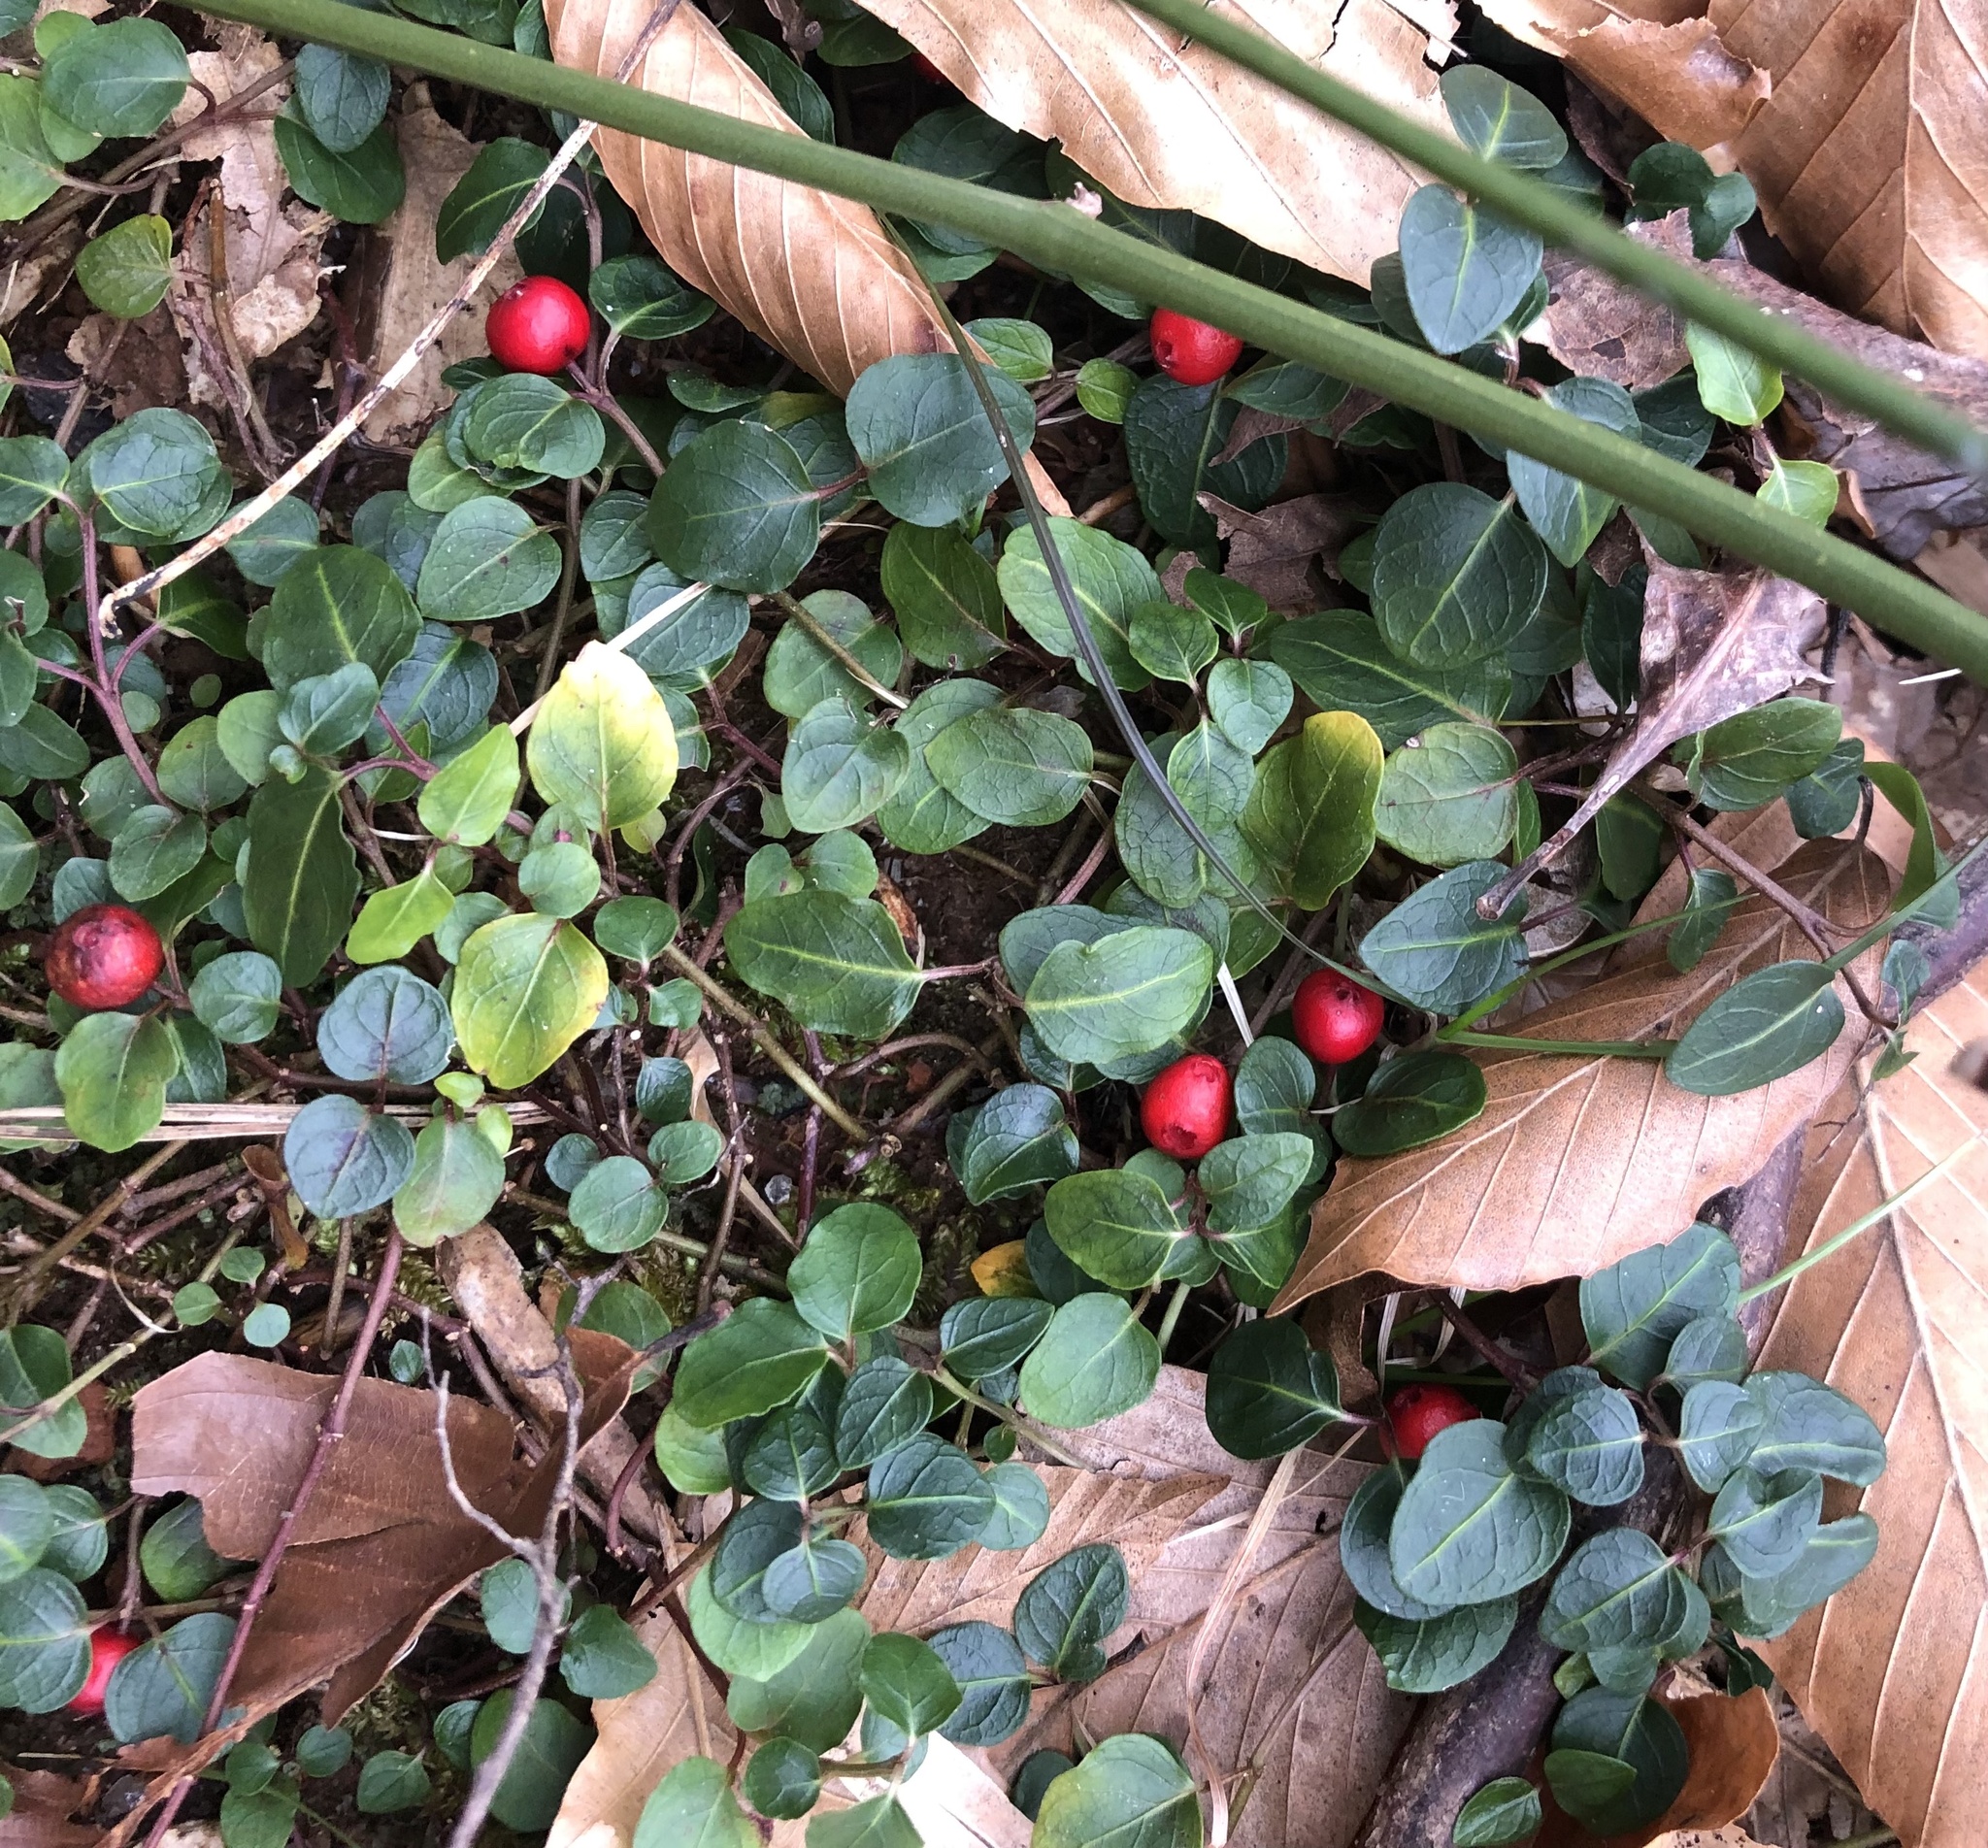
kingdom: Plantae
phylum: Tracheophyta
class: Magnoliopsida
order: Gentianales
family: Rubiaceae
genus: Mitchella
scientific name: Mitchella repens
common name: Partridge-berry
